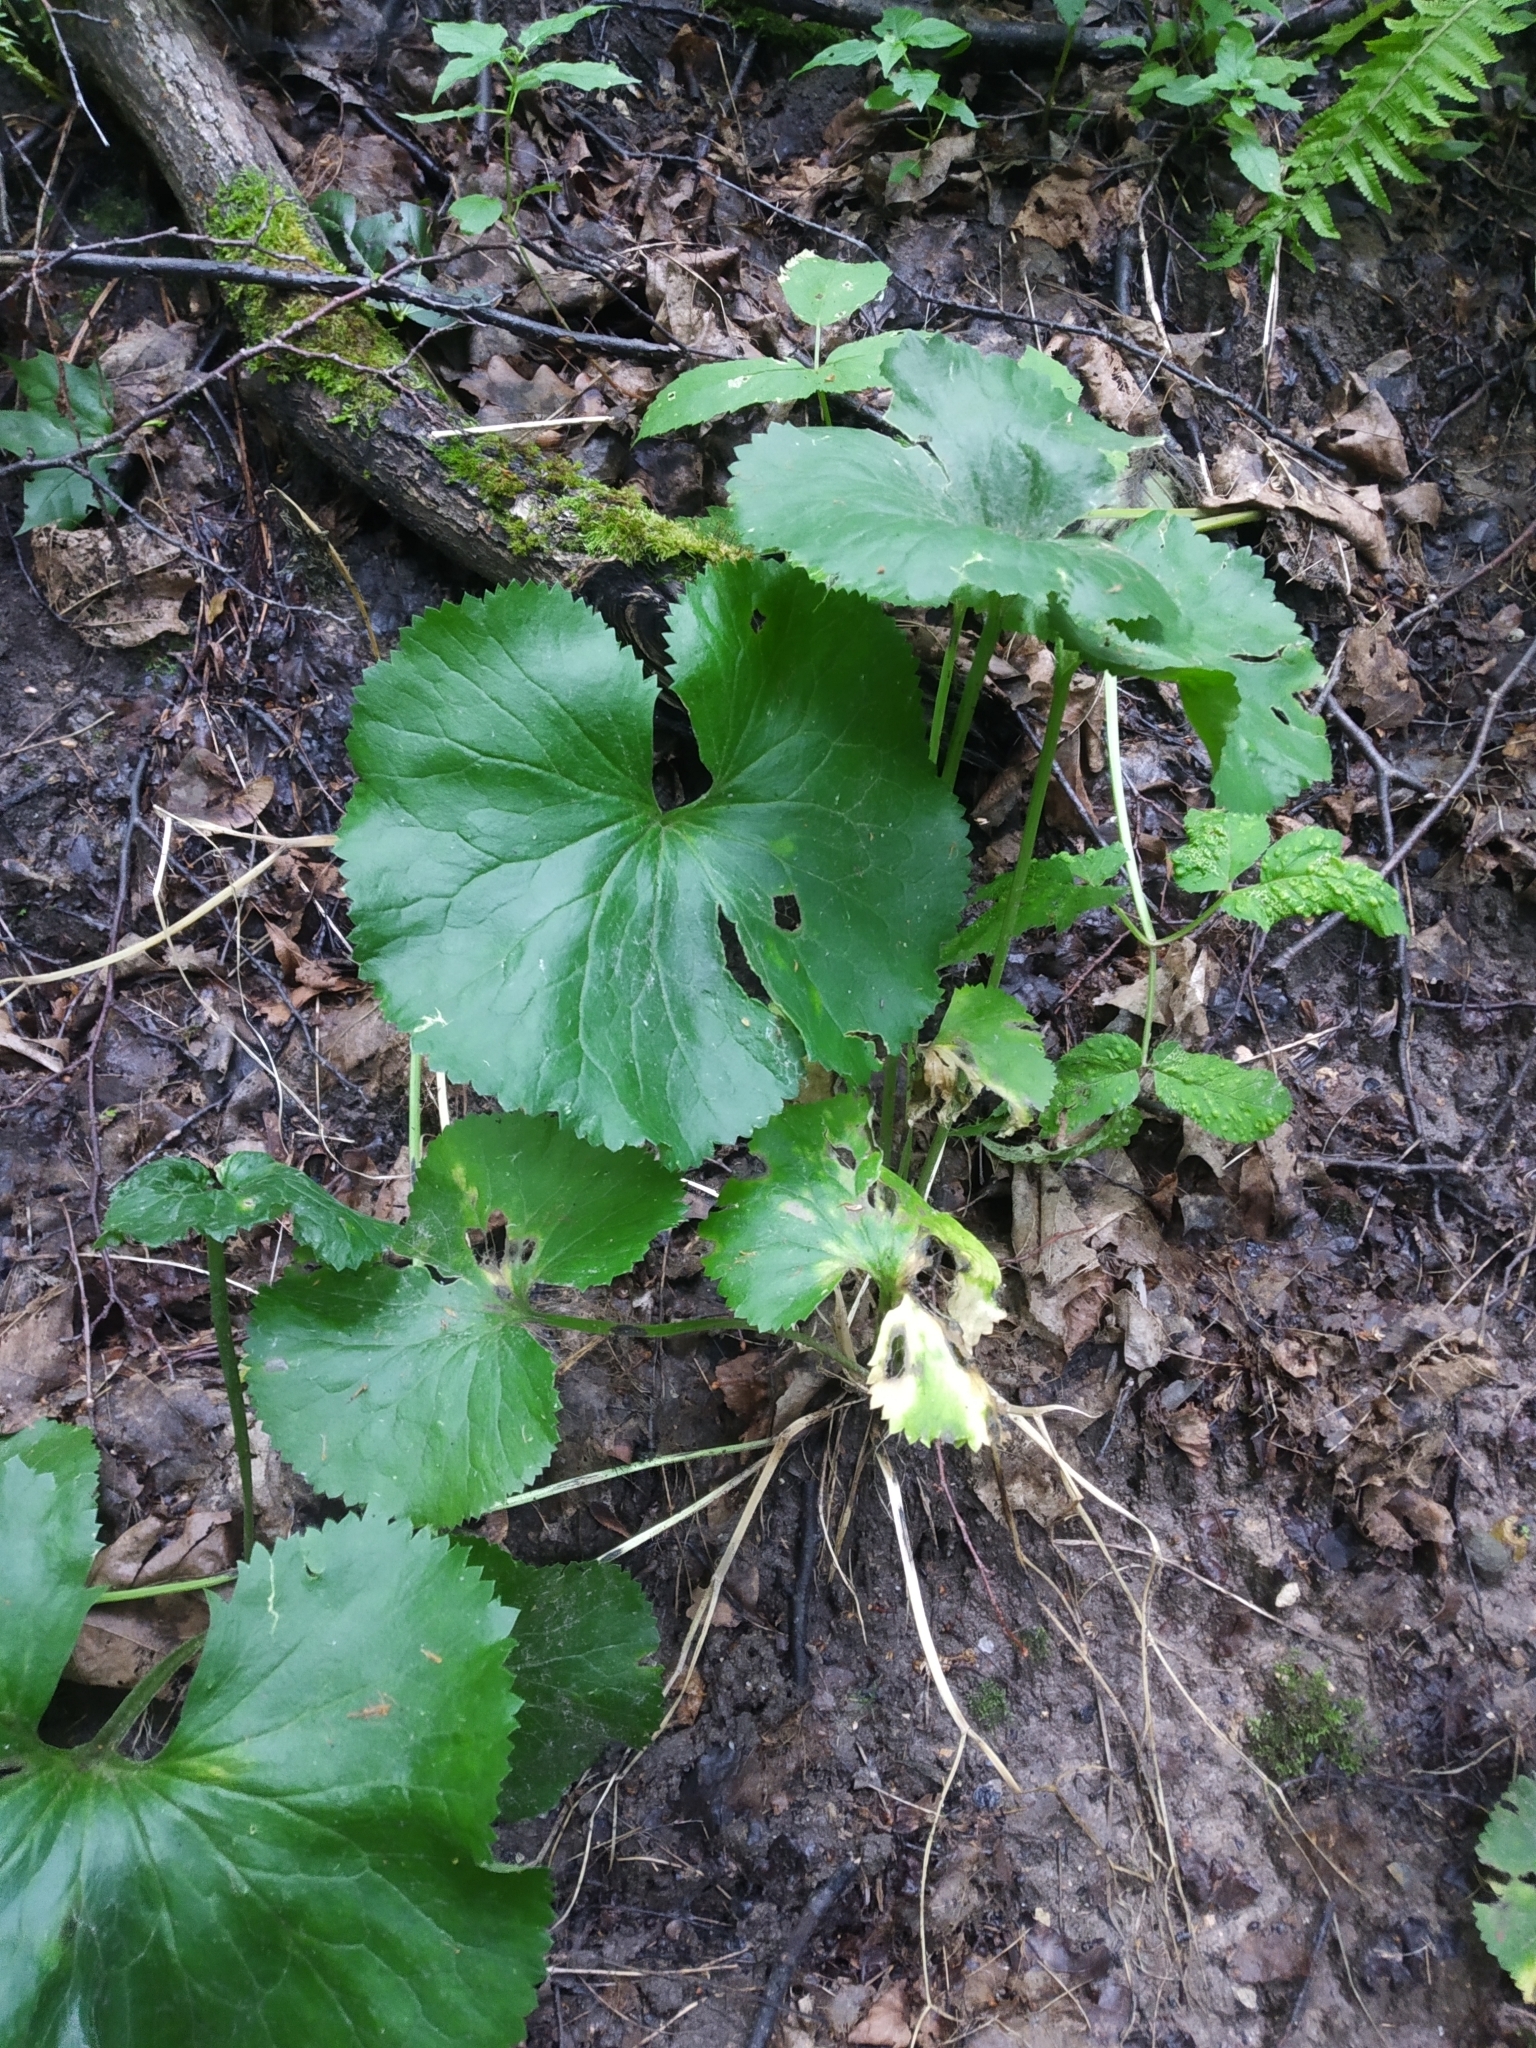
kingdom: Plantae
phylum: Tracheophyta
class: Magnoliopsida
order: Ranunculales
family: Ranunculaceae
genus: Caltha
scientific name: Caltha palustris
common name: Marsh marigold
